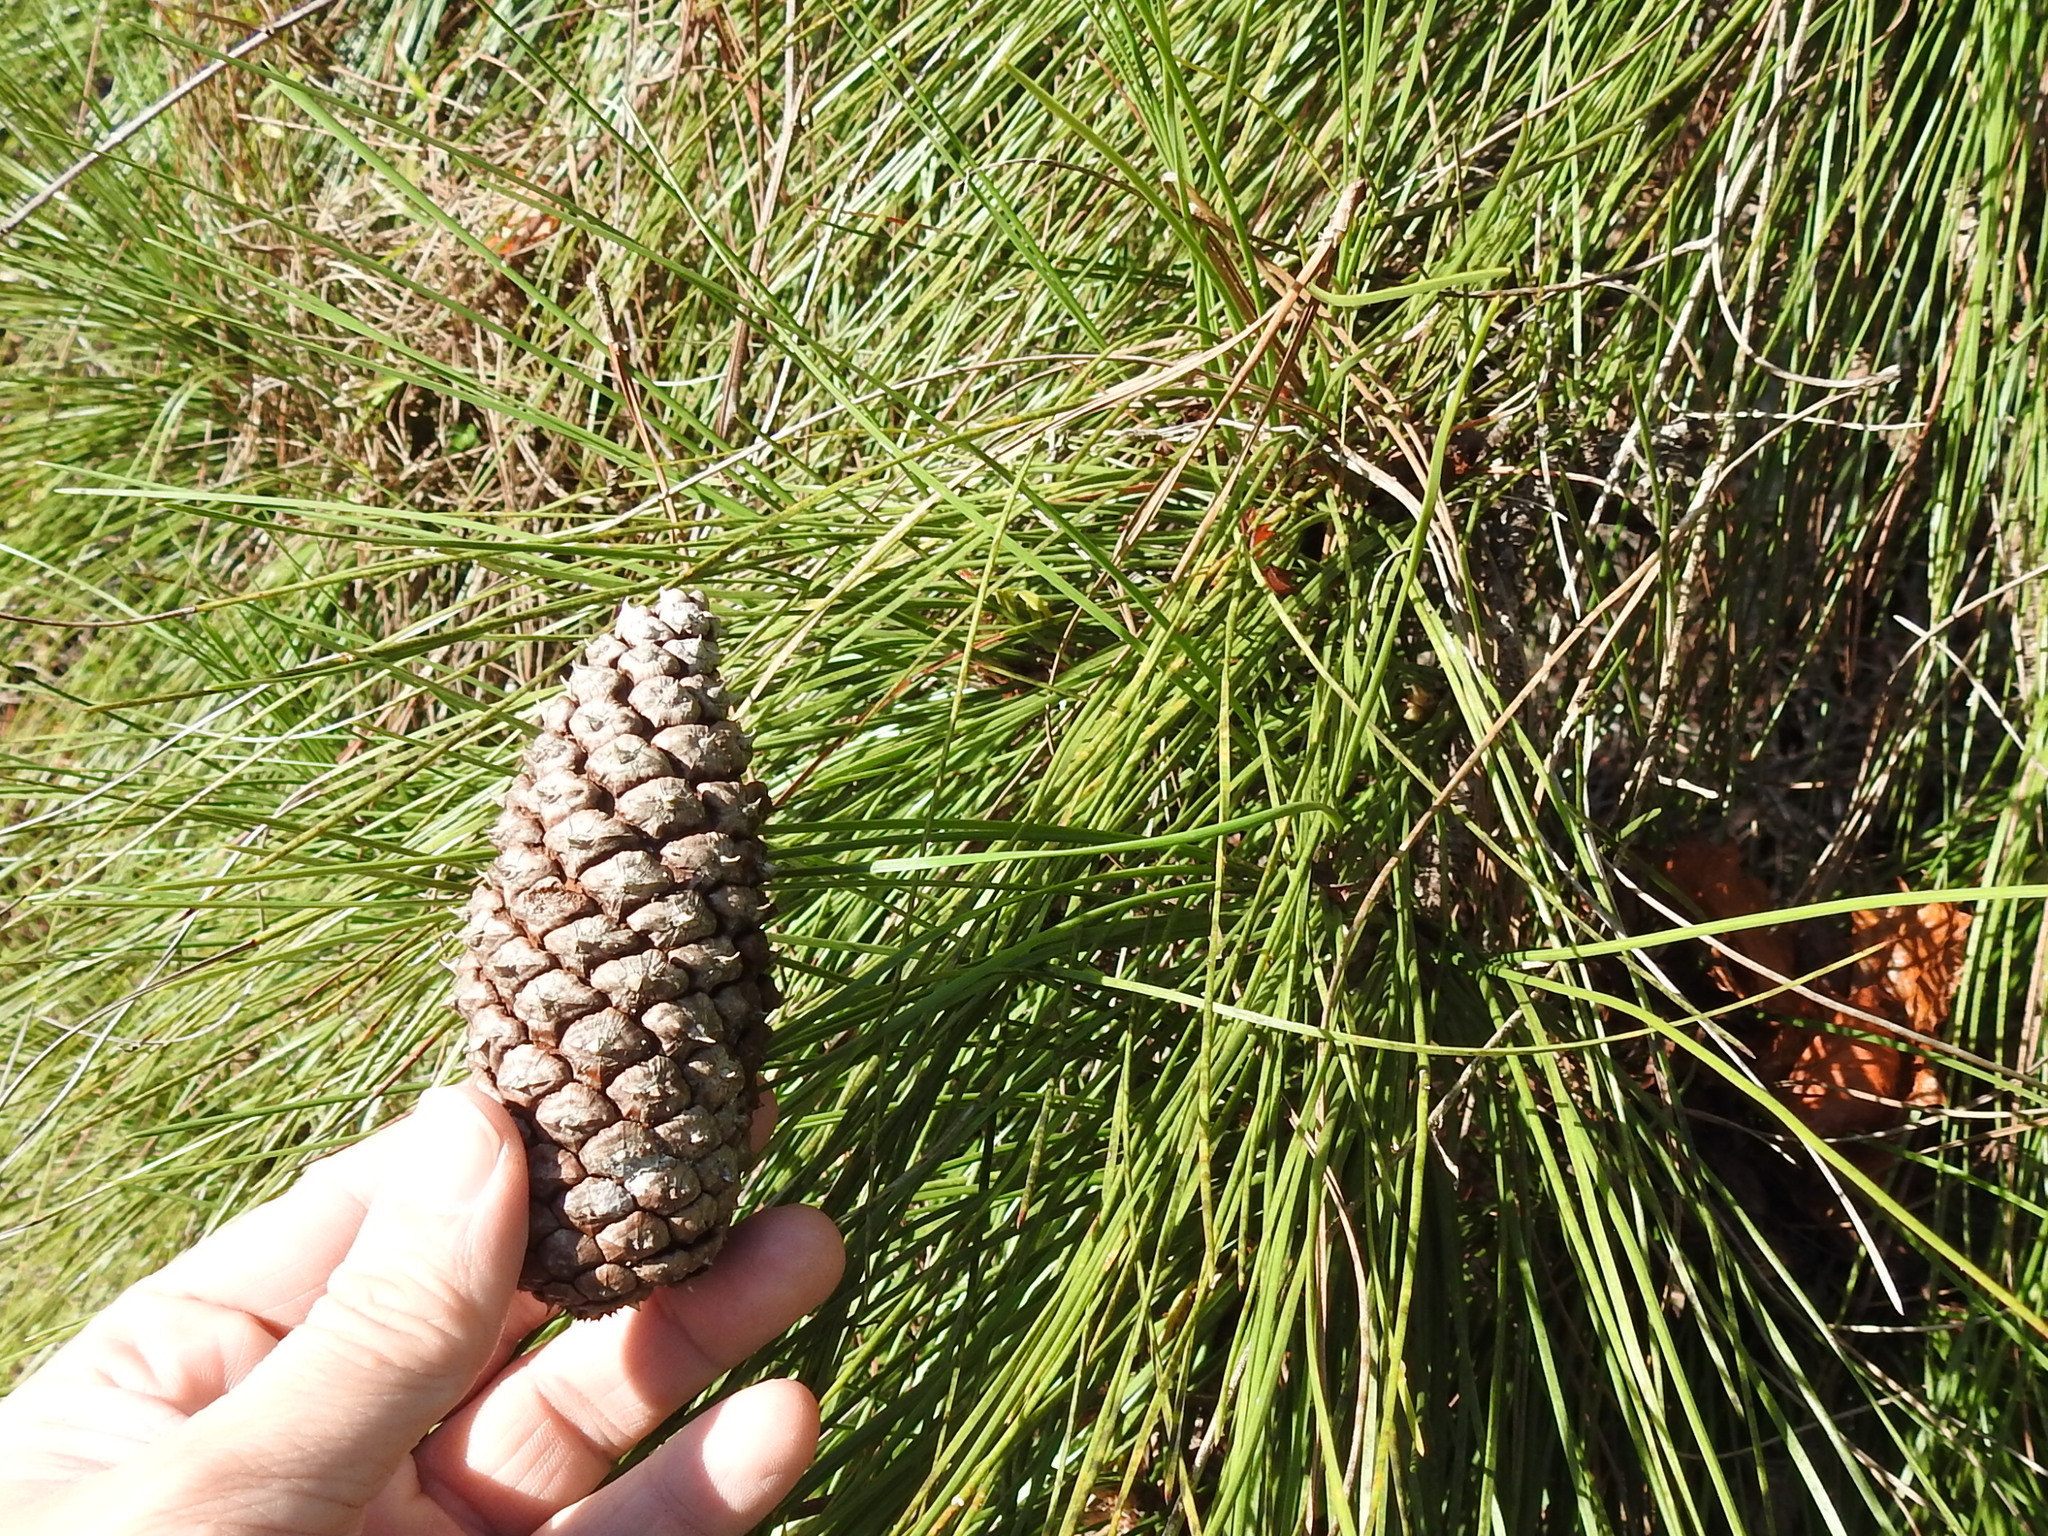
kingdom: Plantae
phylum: Tracheophyta
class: Pinopsida
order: Pinales
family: Pinaceae
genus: Pinus
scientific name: Pinus elliottii
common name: Slash pine
